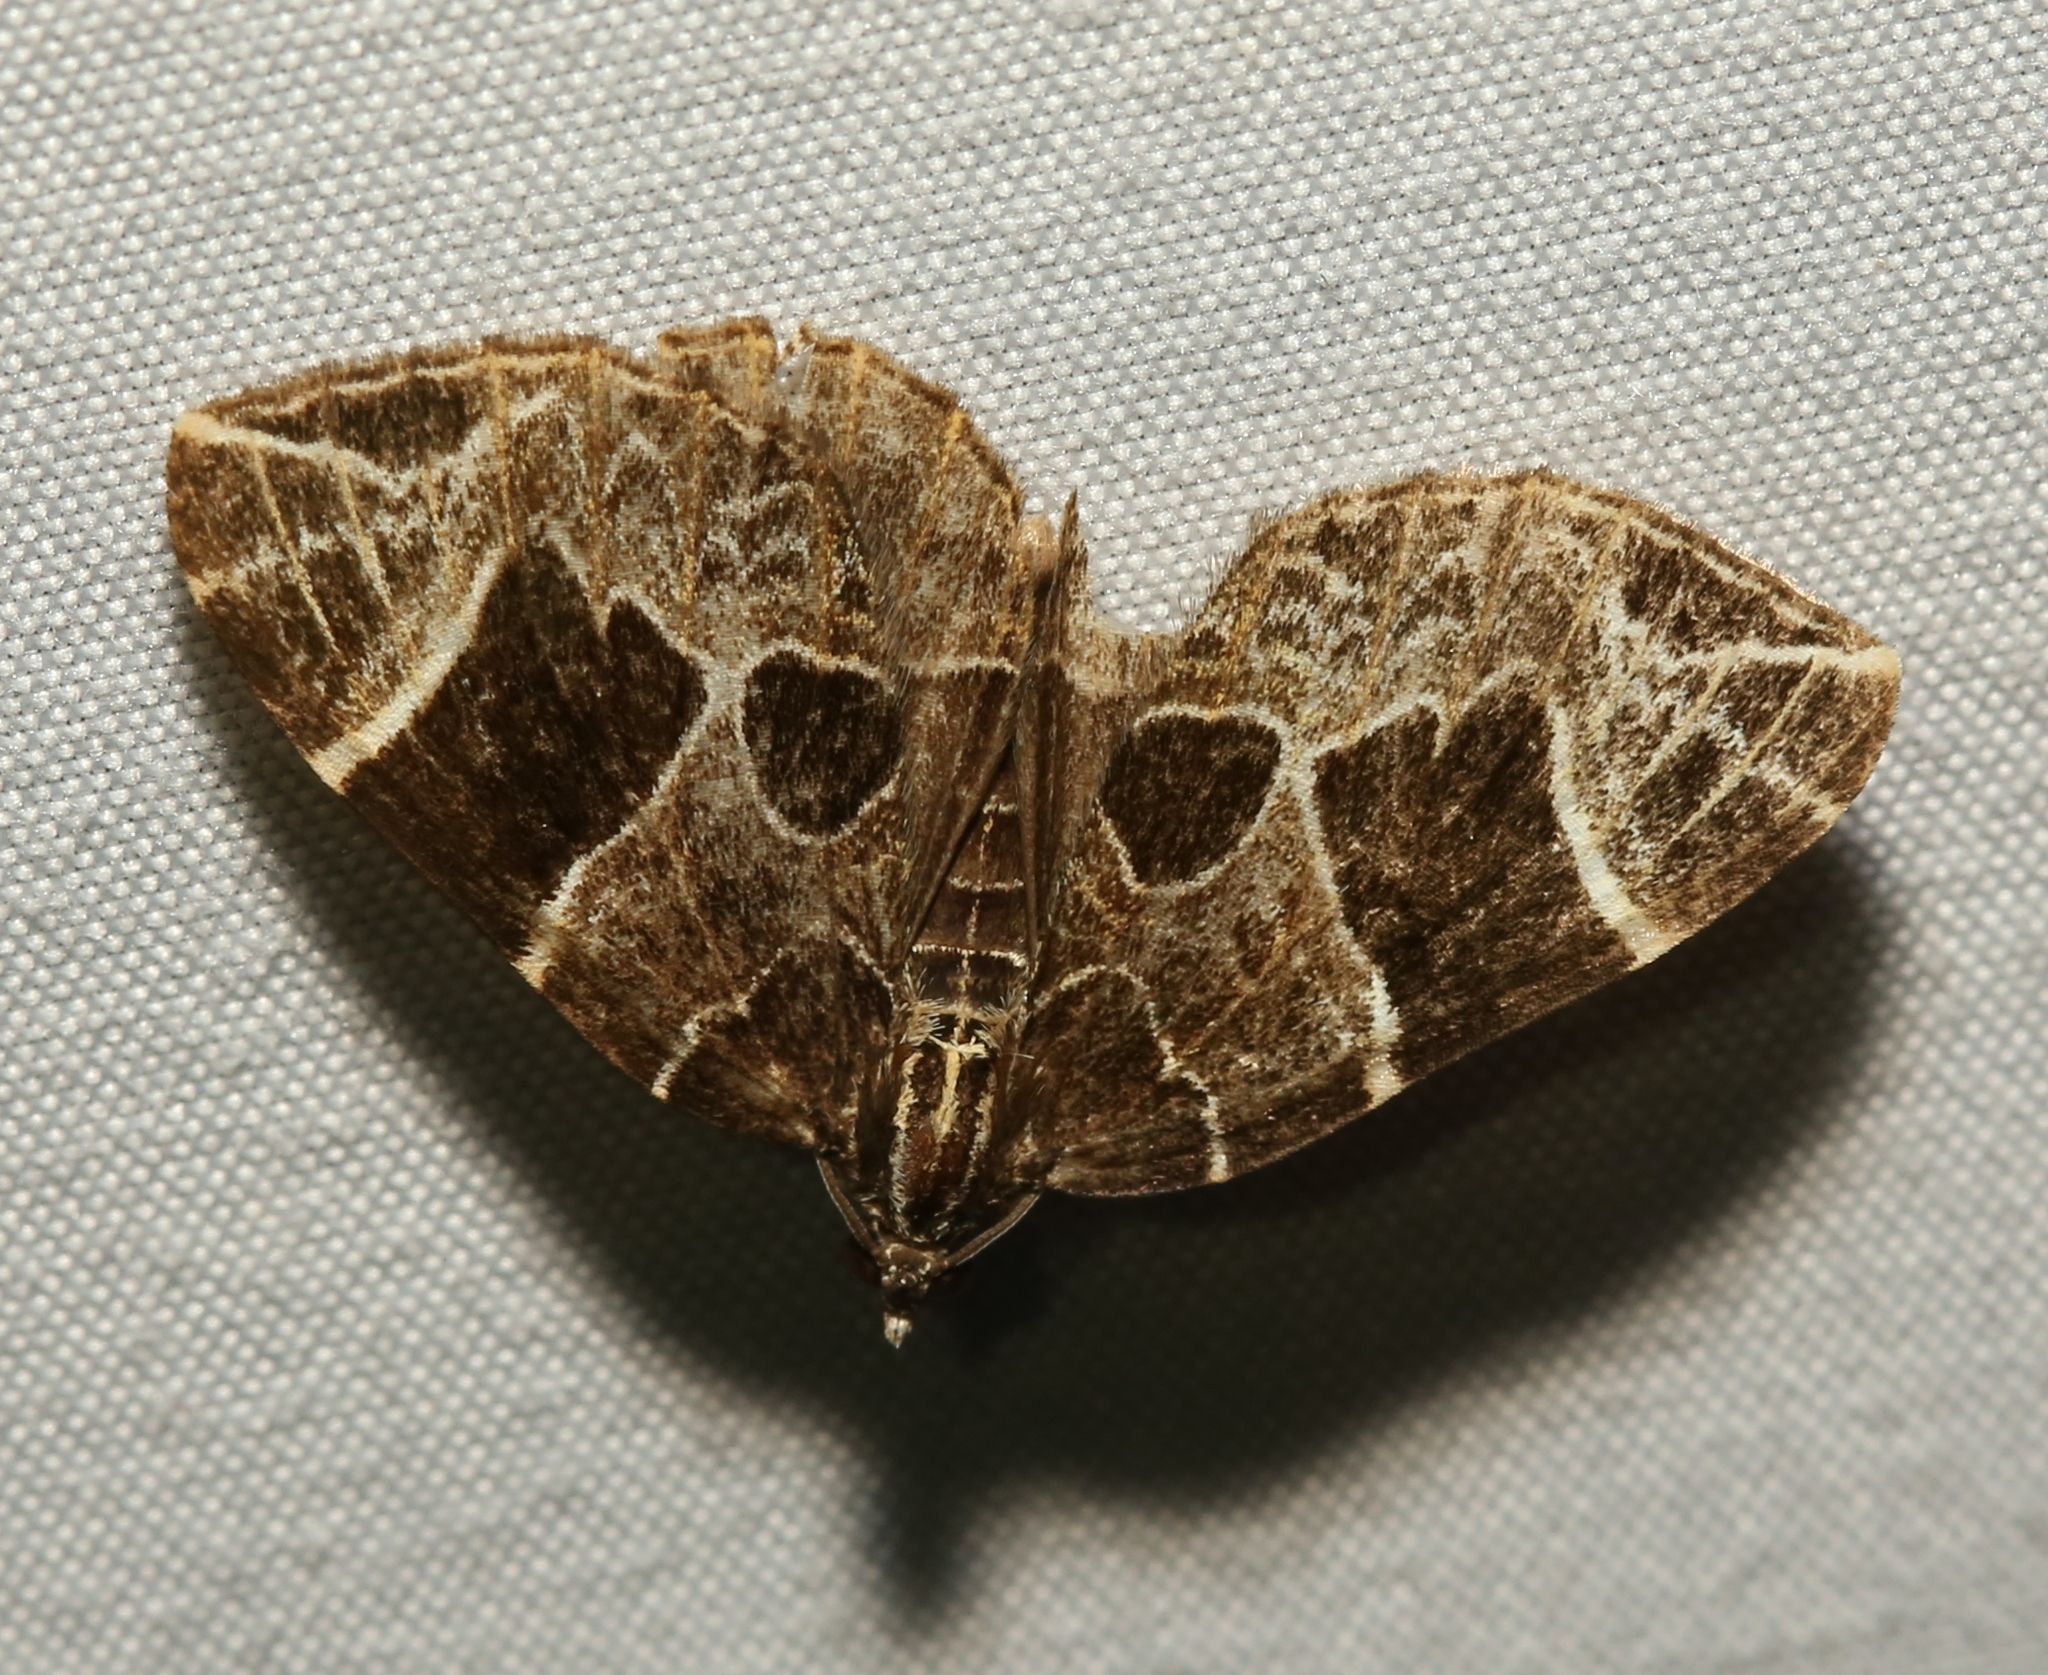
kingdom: Animalia
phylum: Arthropoda
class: Insecta
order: Lepidoptera
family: Geometridae
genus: Ecliptopera
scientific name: Ecliptopera atricolorata
